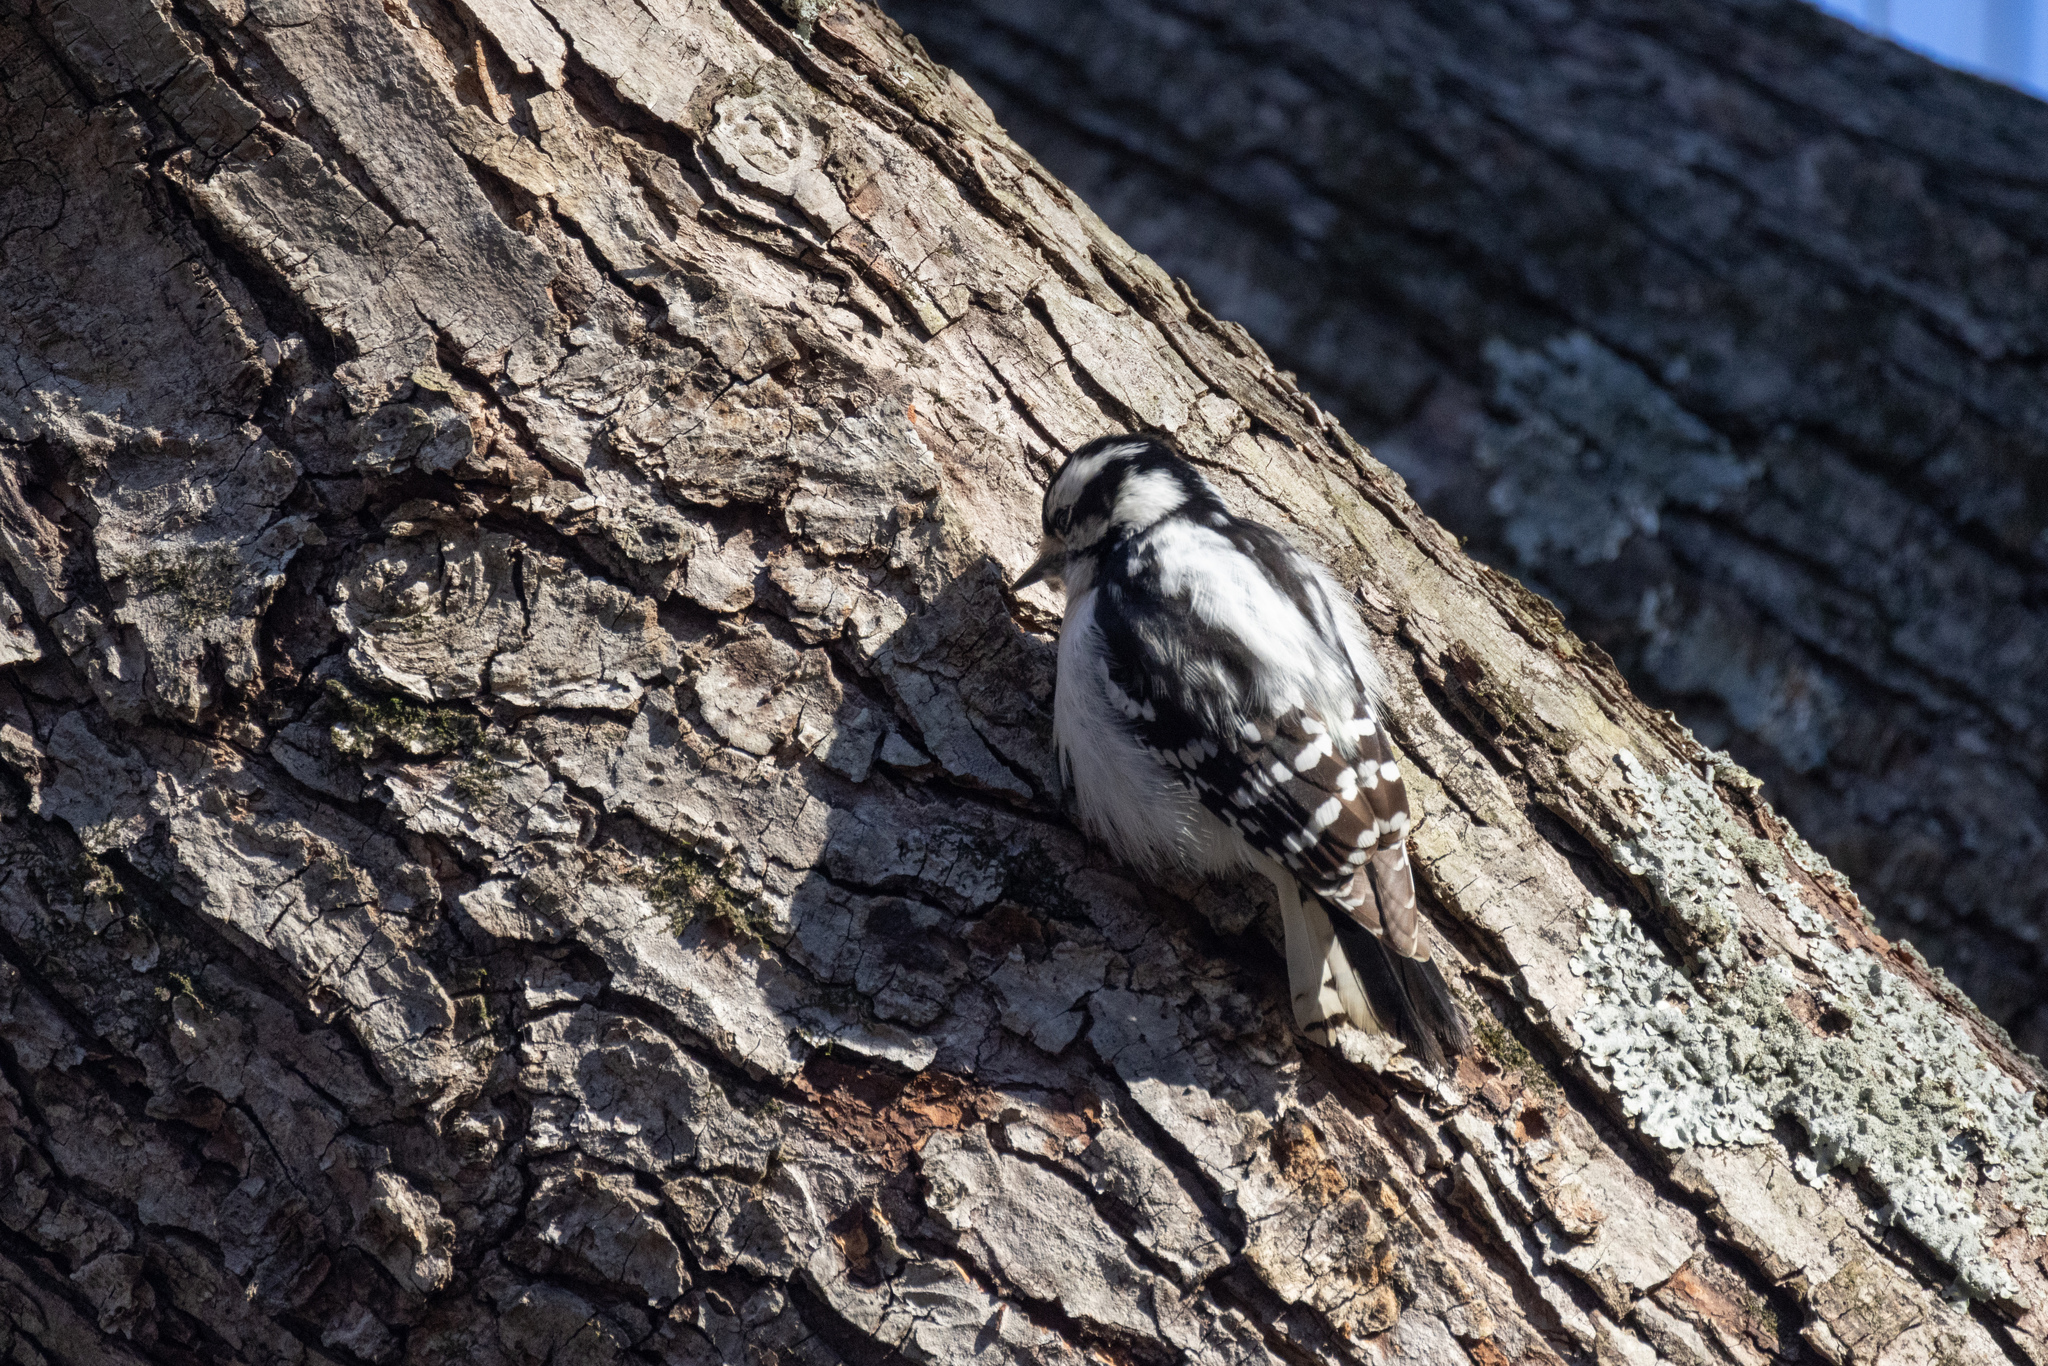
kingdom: Animalia
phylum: Chordata
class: Aves
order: Piciformes
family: Picidae
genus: Dryobates
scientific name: Dryobates pubescens
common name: Downy woodpecker
